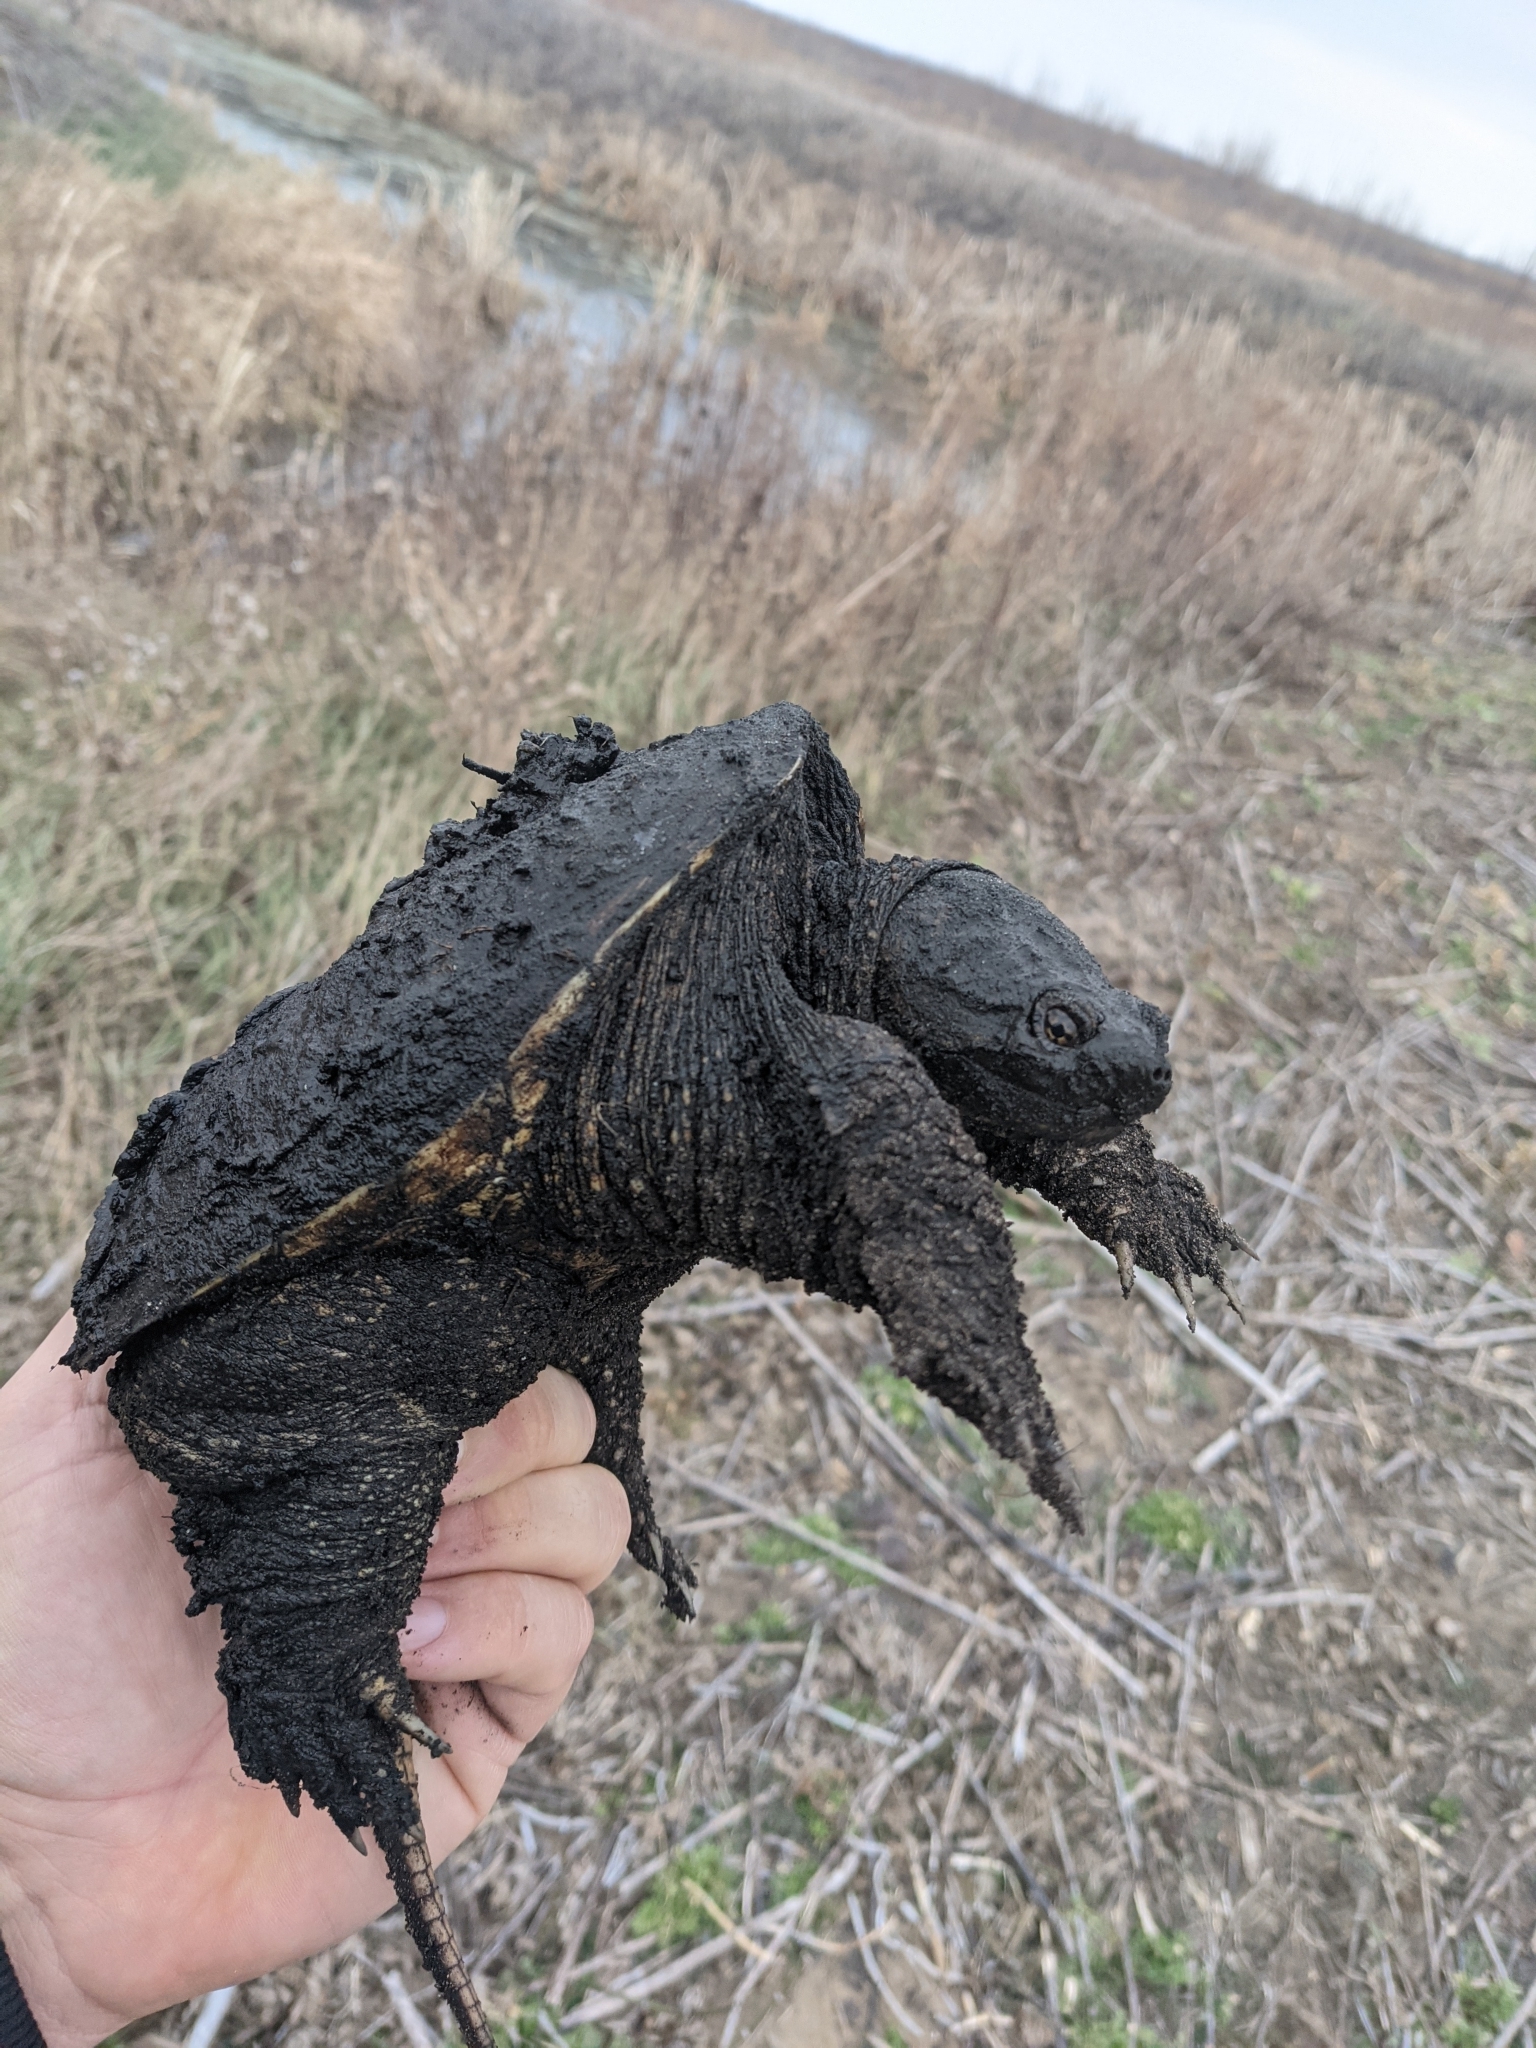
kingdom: Animalia
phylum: Chordata
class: Testudines
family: Chelydridae
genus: Chelydra
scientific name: Chelydra serpentina
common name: Common snapping turtle
